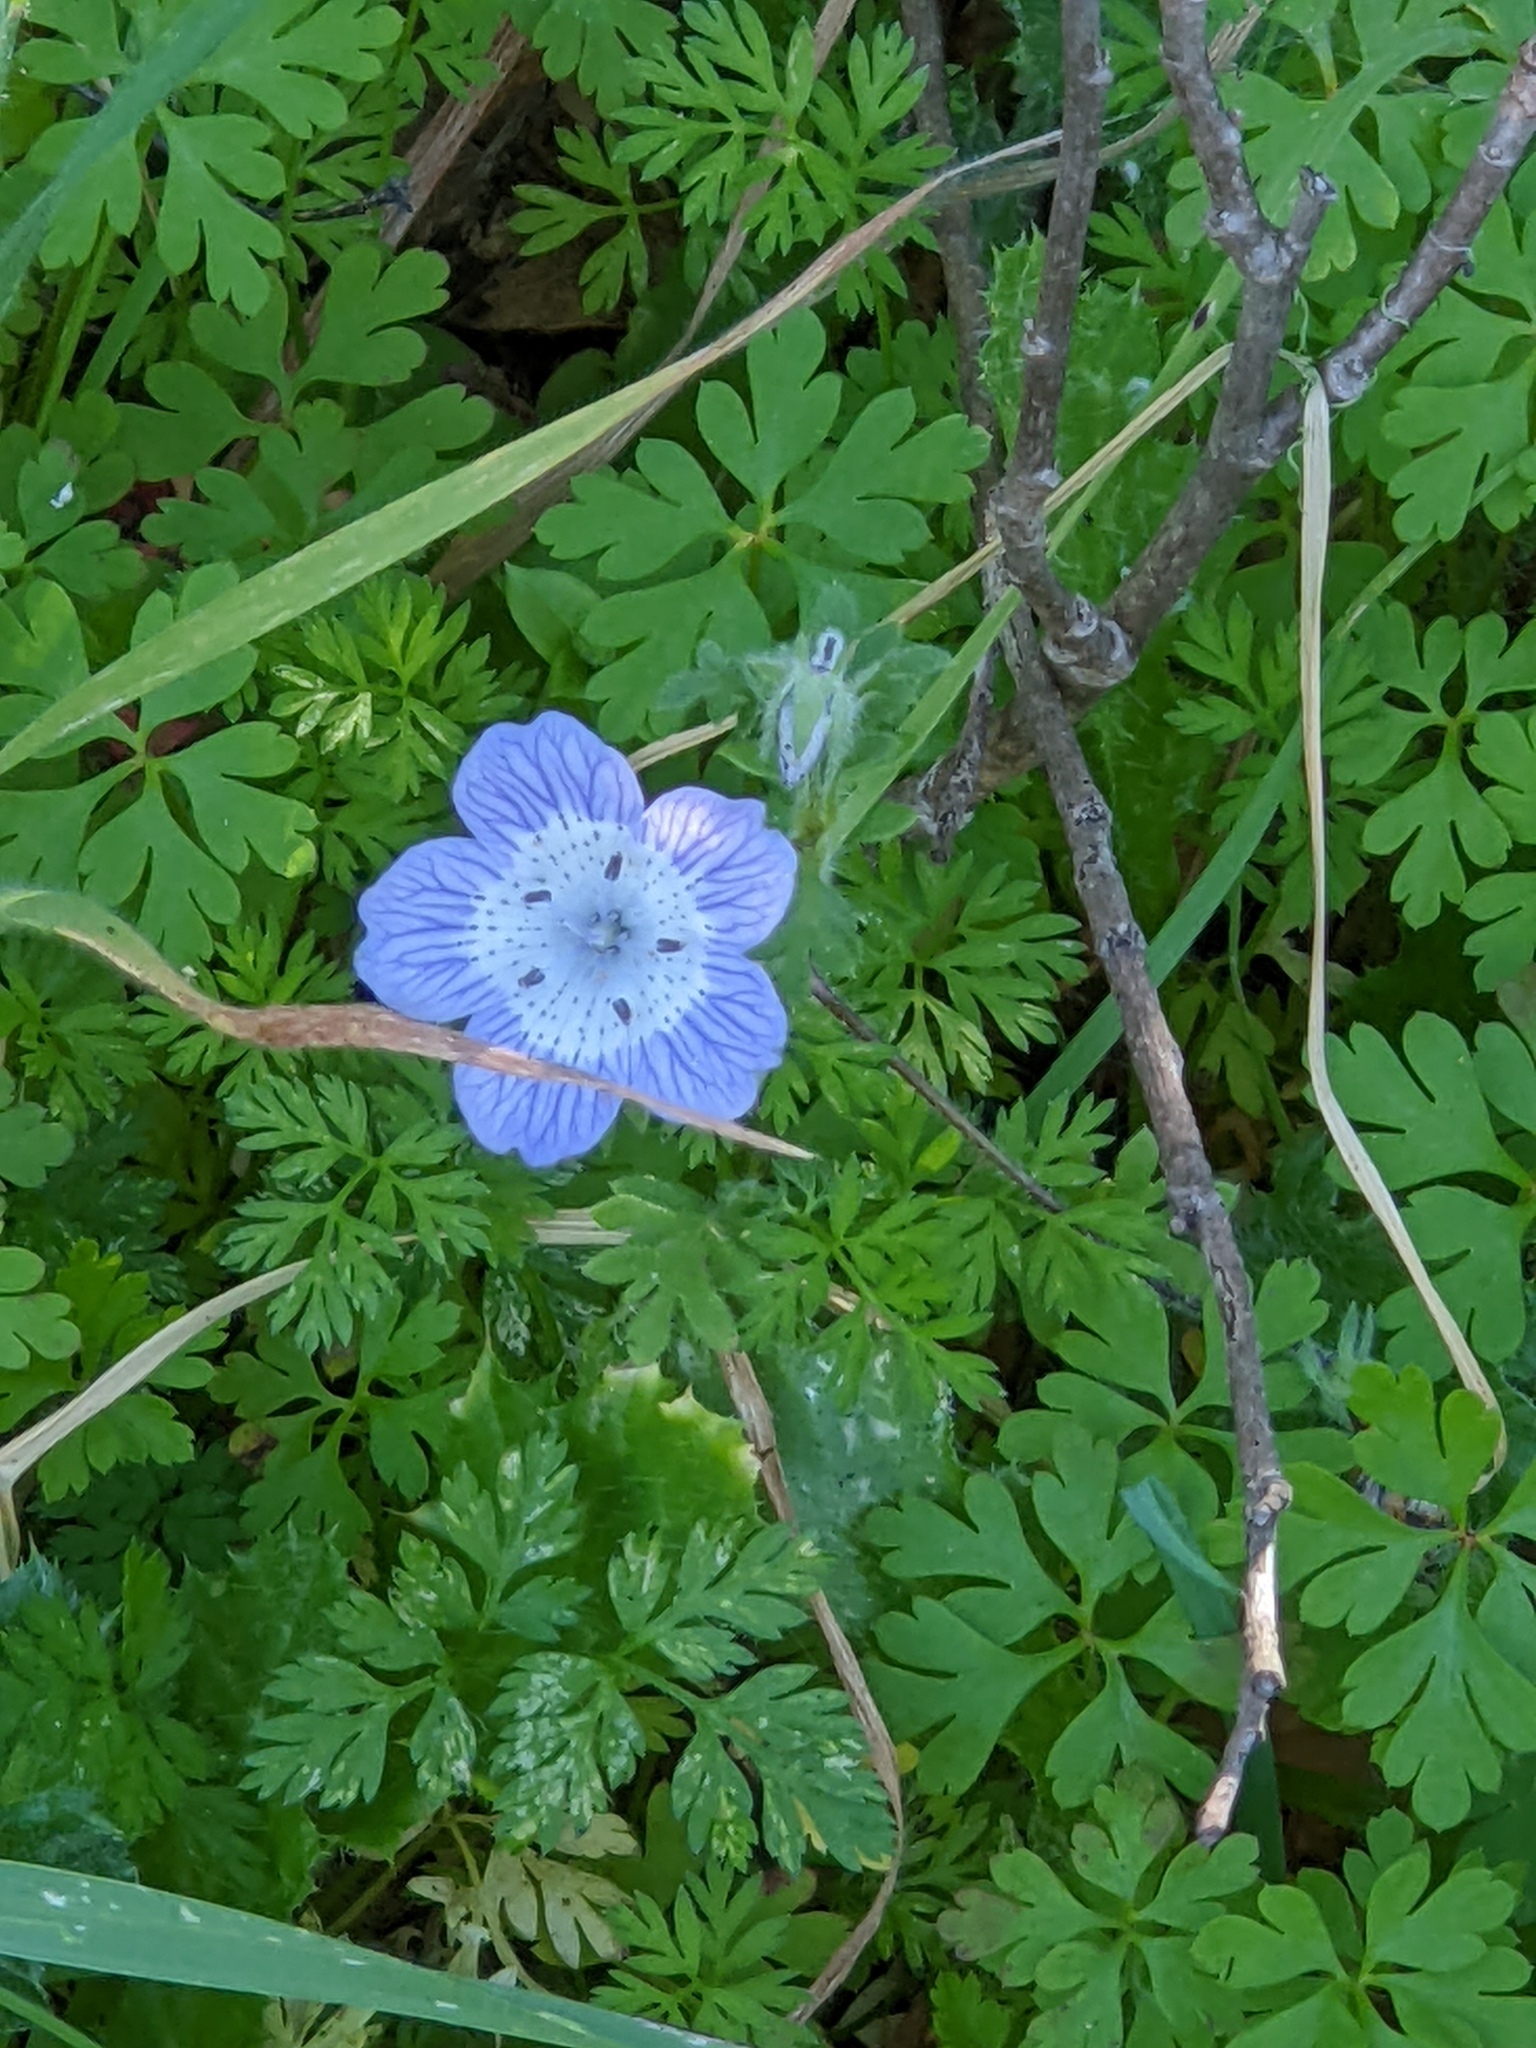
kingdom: Plantae
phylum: Tracheophyta
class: Magnoliopsida
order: Boraginales
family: Hydrophyllaceae
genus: Nemophila
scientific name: Nemophila menziesii
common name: Baby's-blue-eyes
